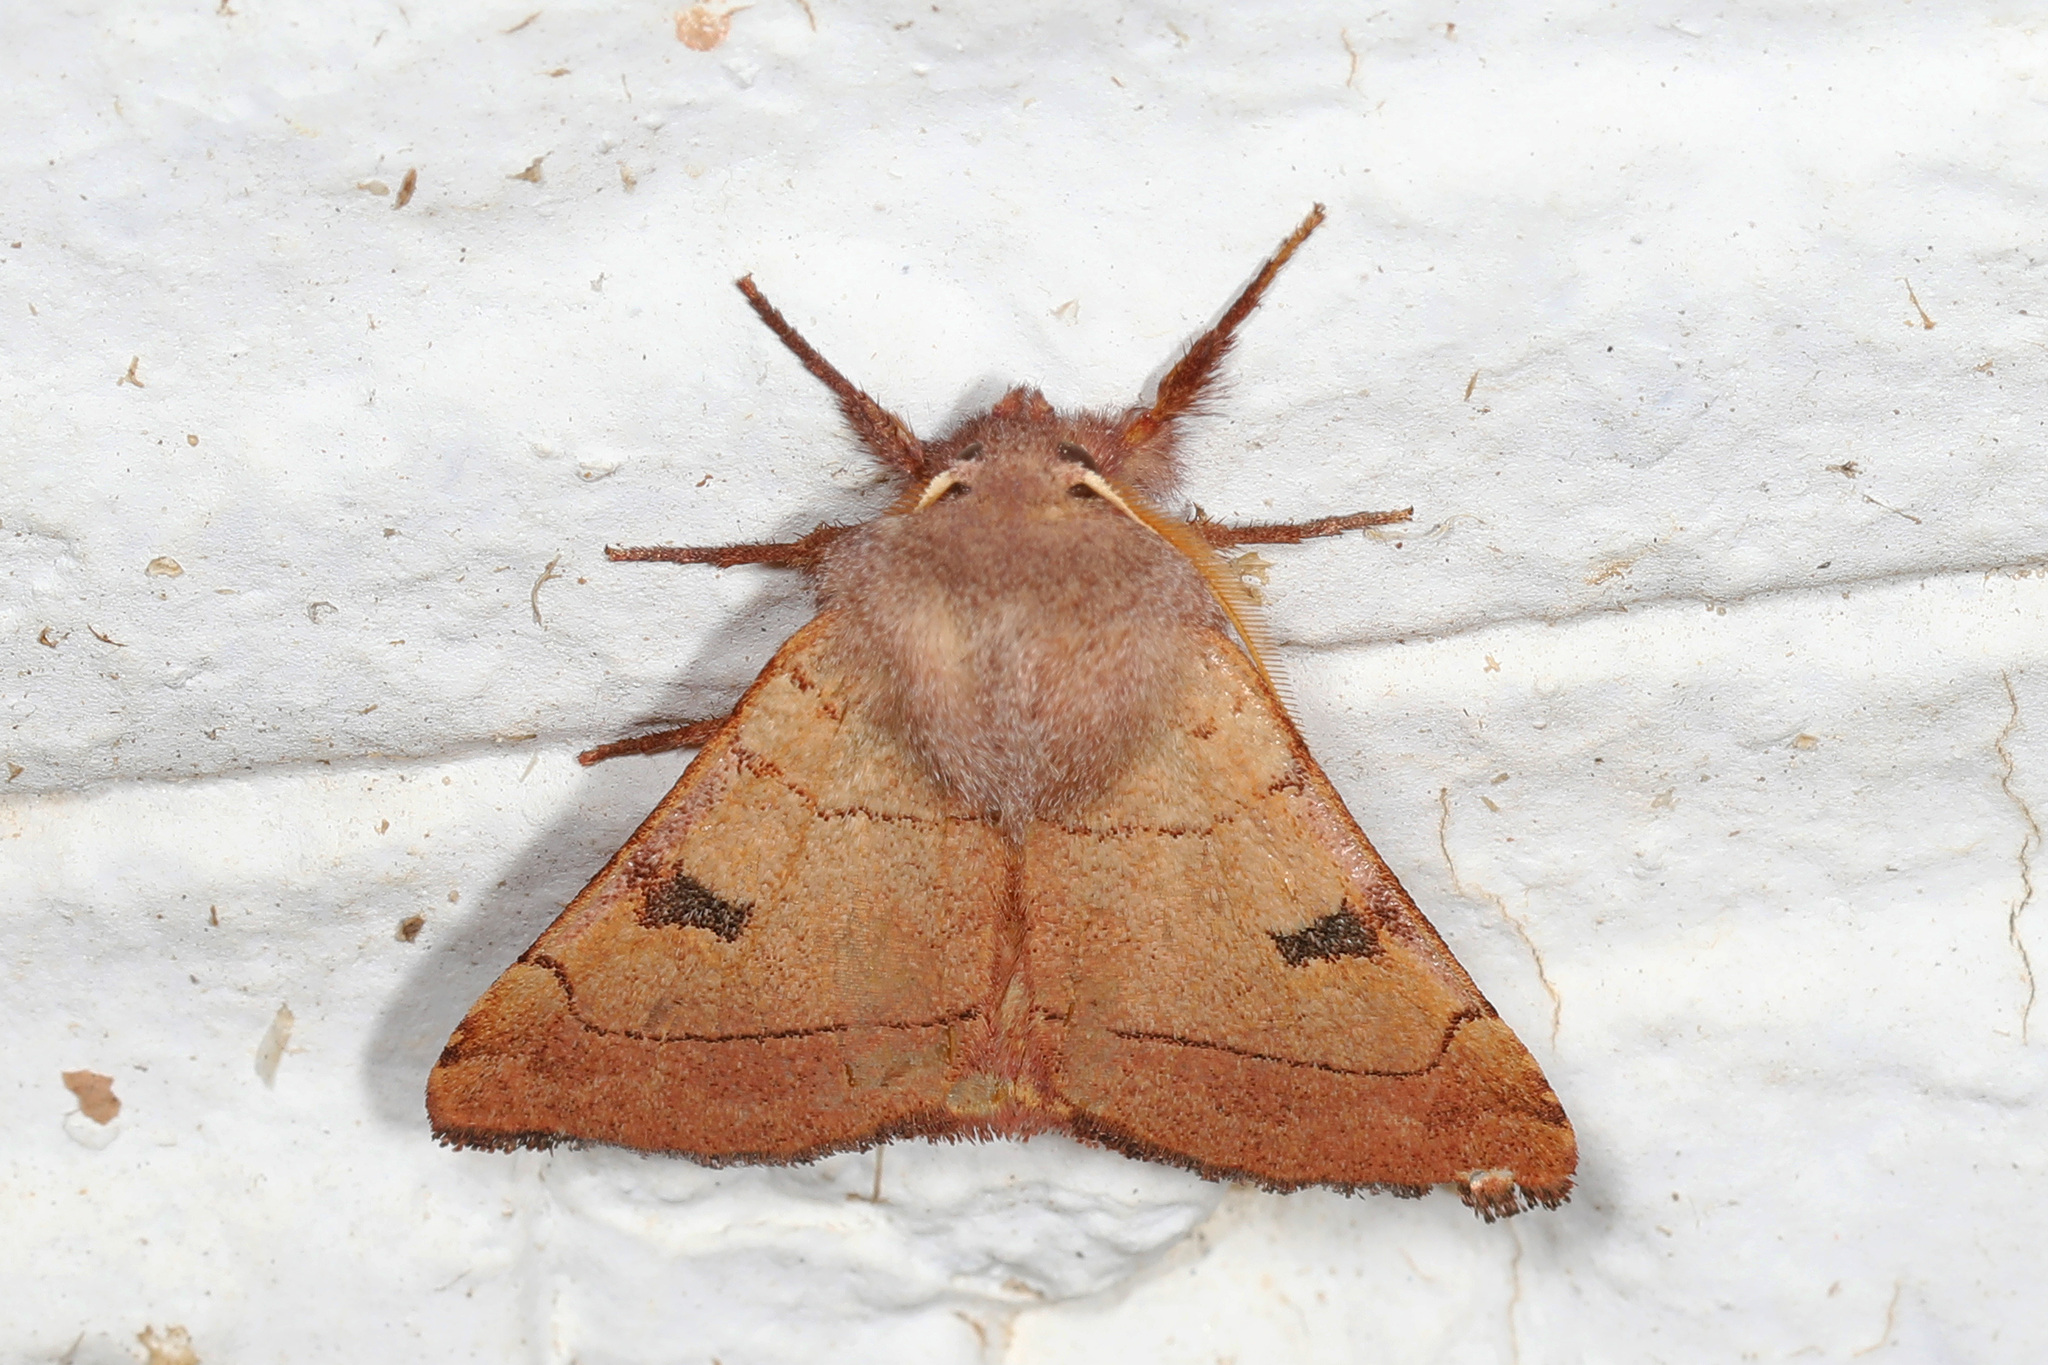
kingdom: Animalia
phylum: Arthropoda
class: Insecta
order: Lepidoptera
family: Noctuidae
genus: Choephora
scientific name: Choephora fungorum
